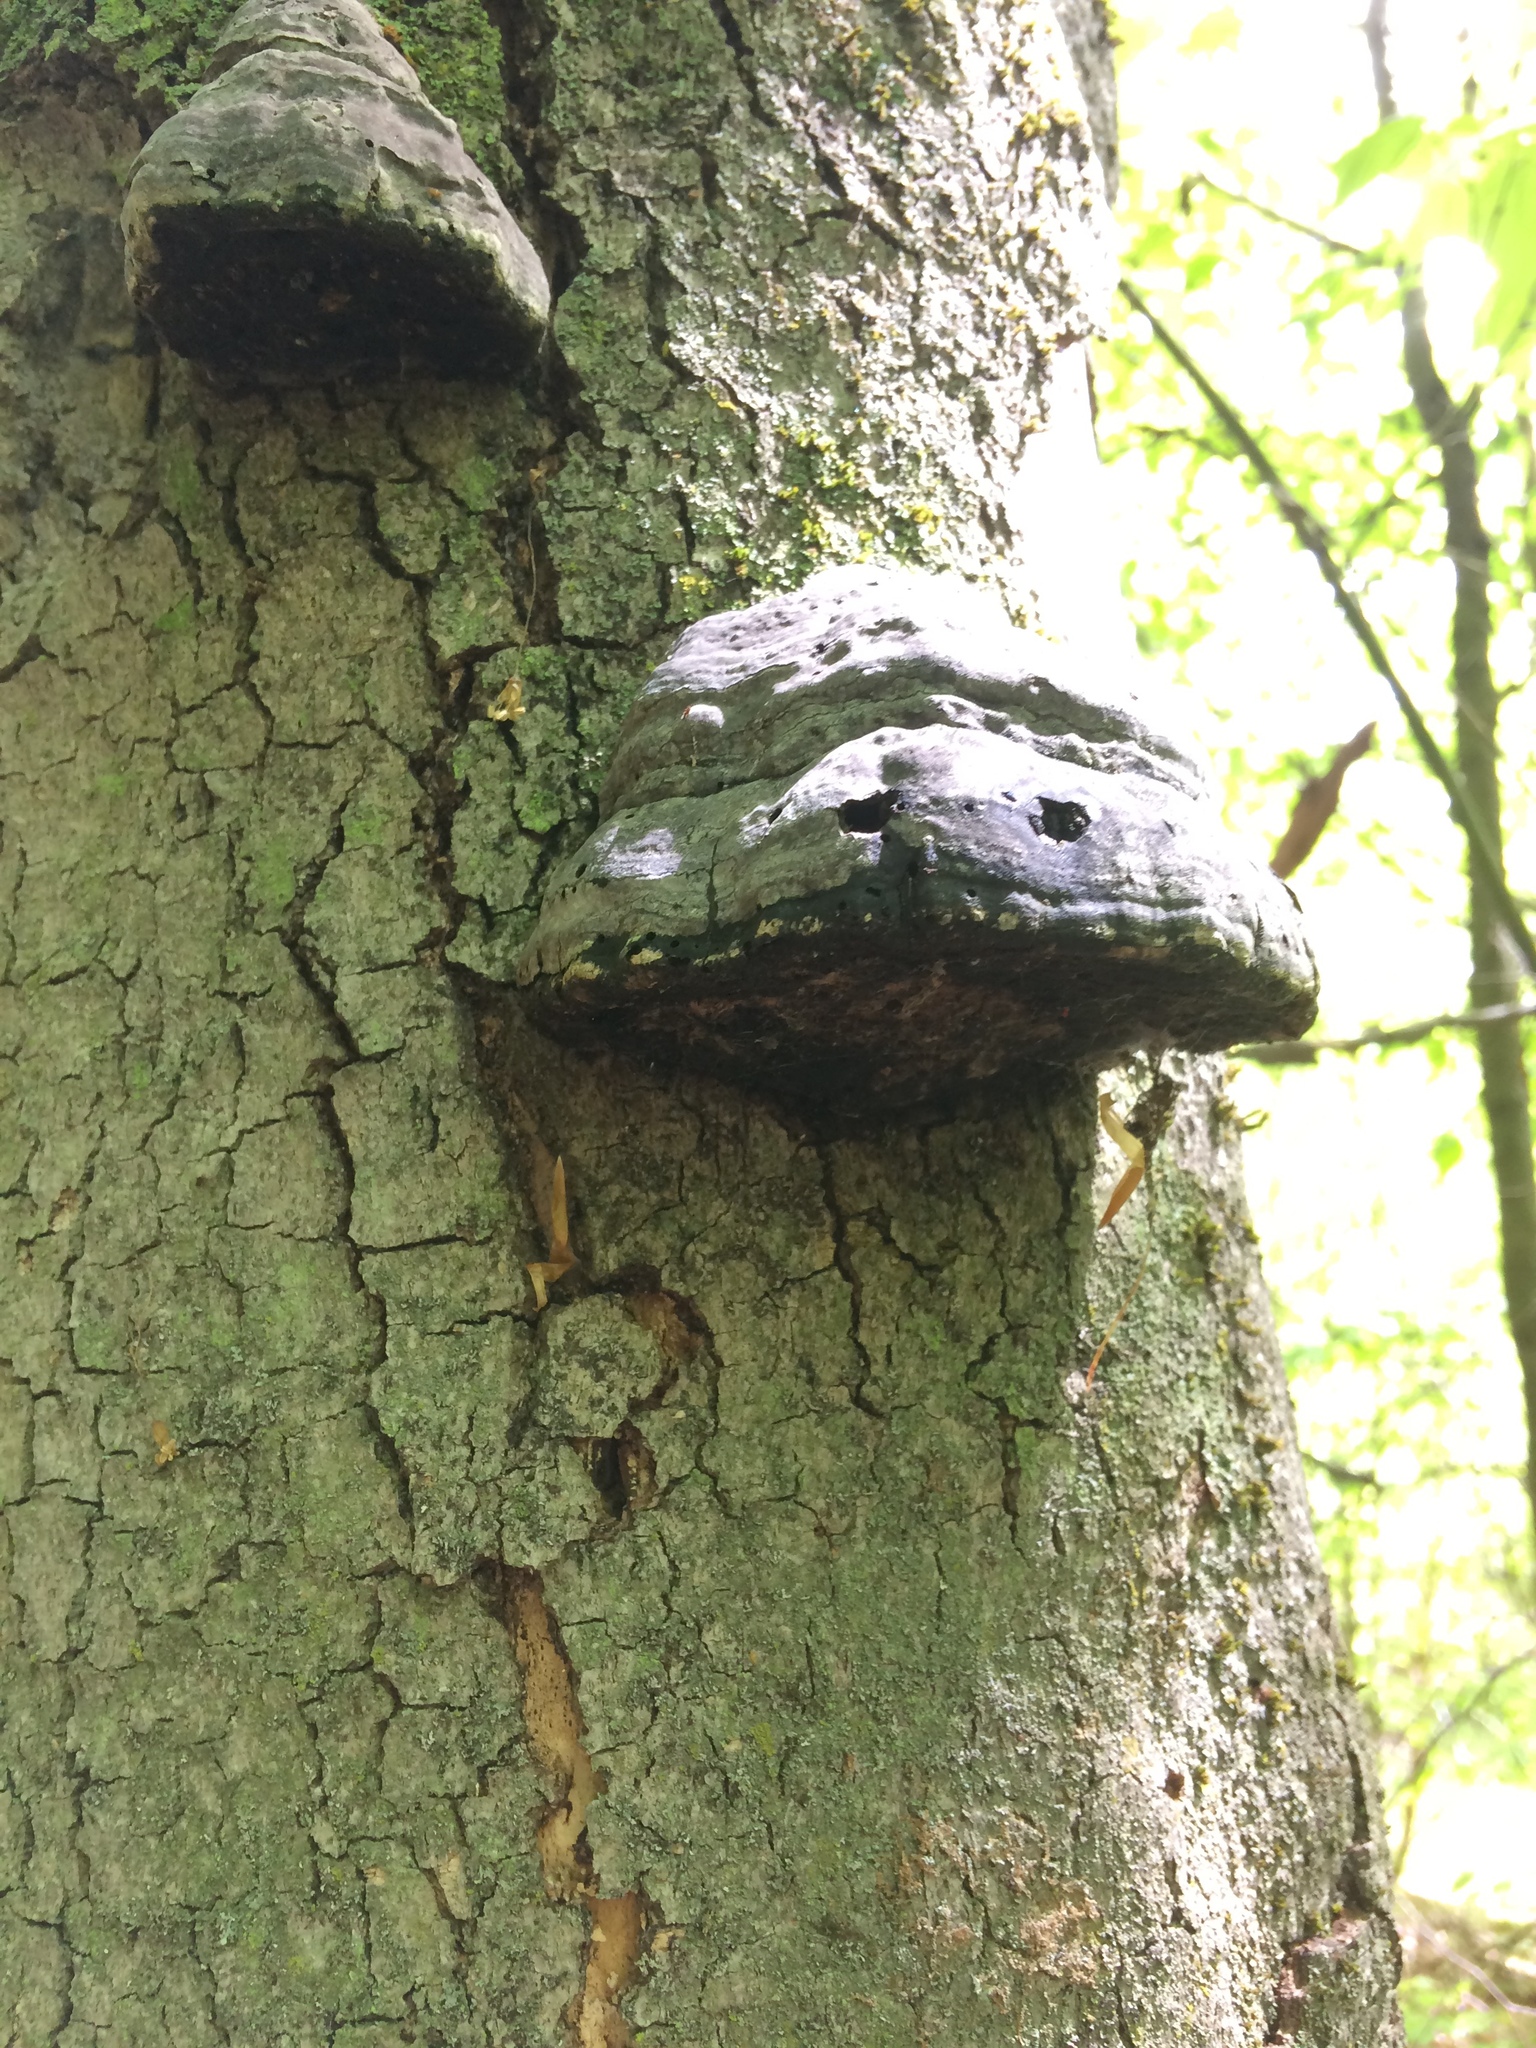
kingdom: Fungi
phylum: Basidiomycota
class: Agaricomycetes
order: Polyporales
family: Polyporaceae
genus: Fomes
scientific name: Fomes fomentarius
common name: Hoof fungus
